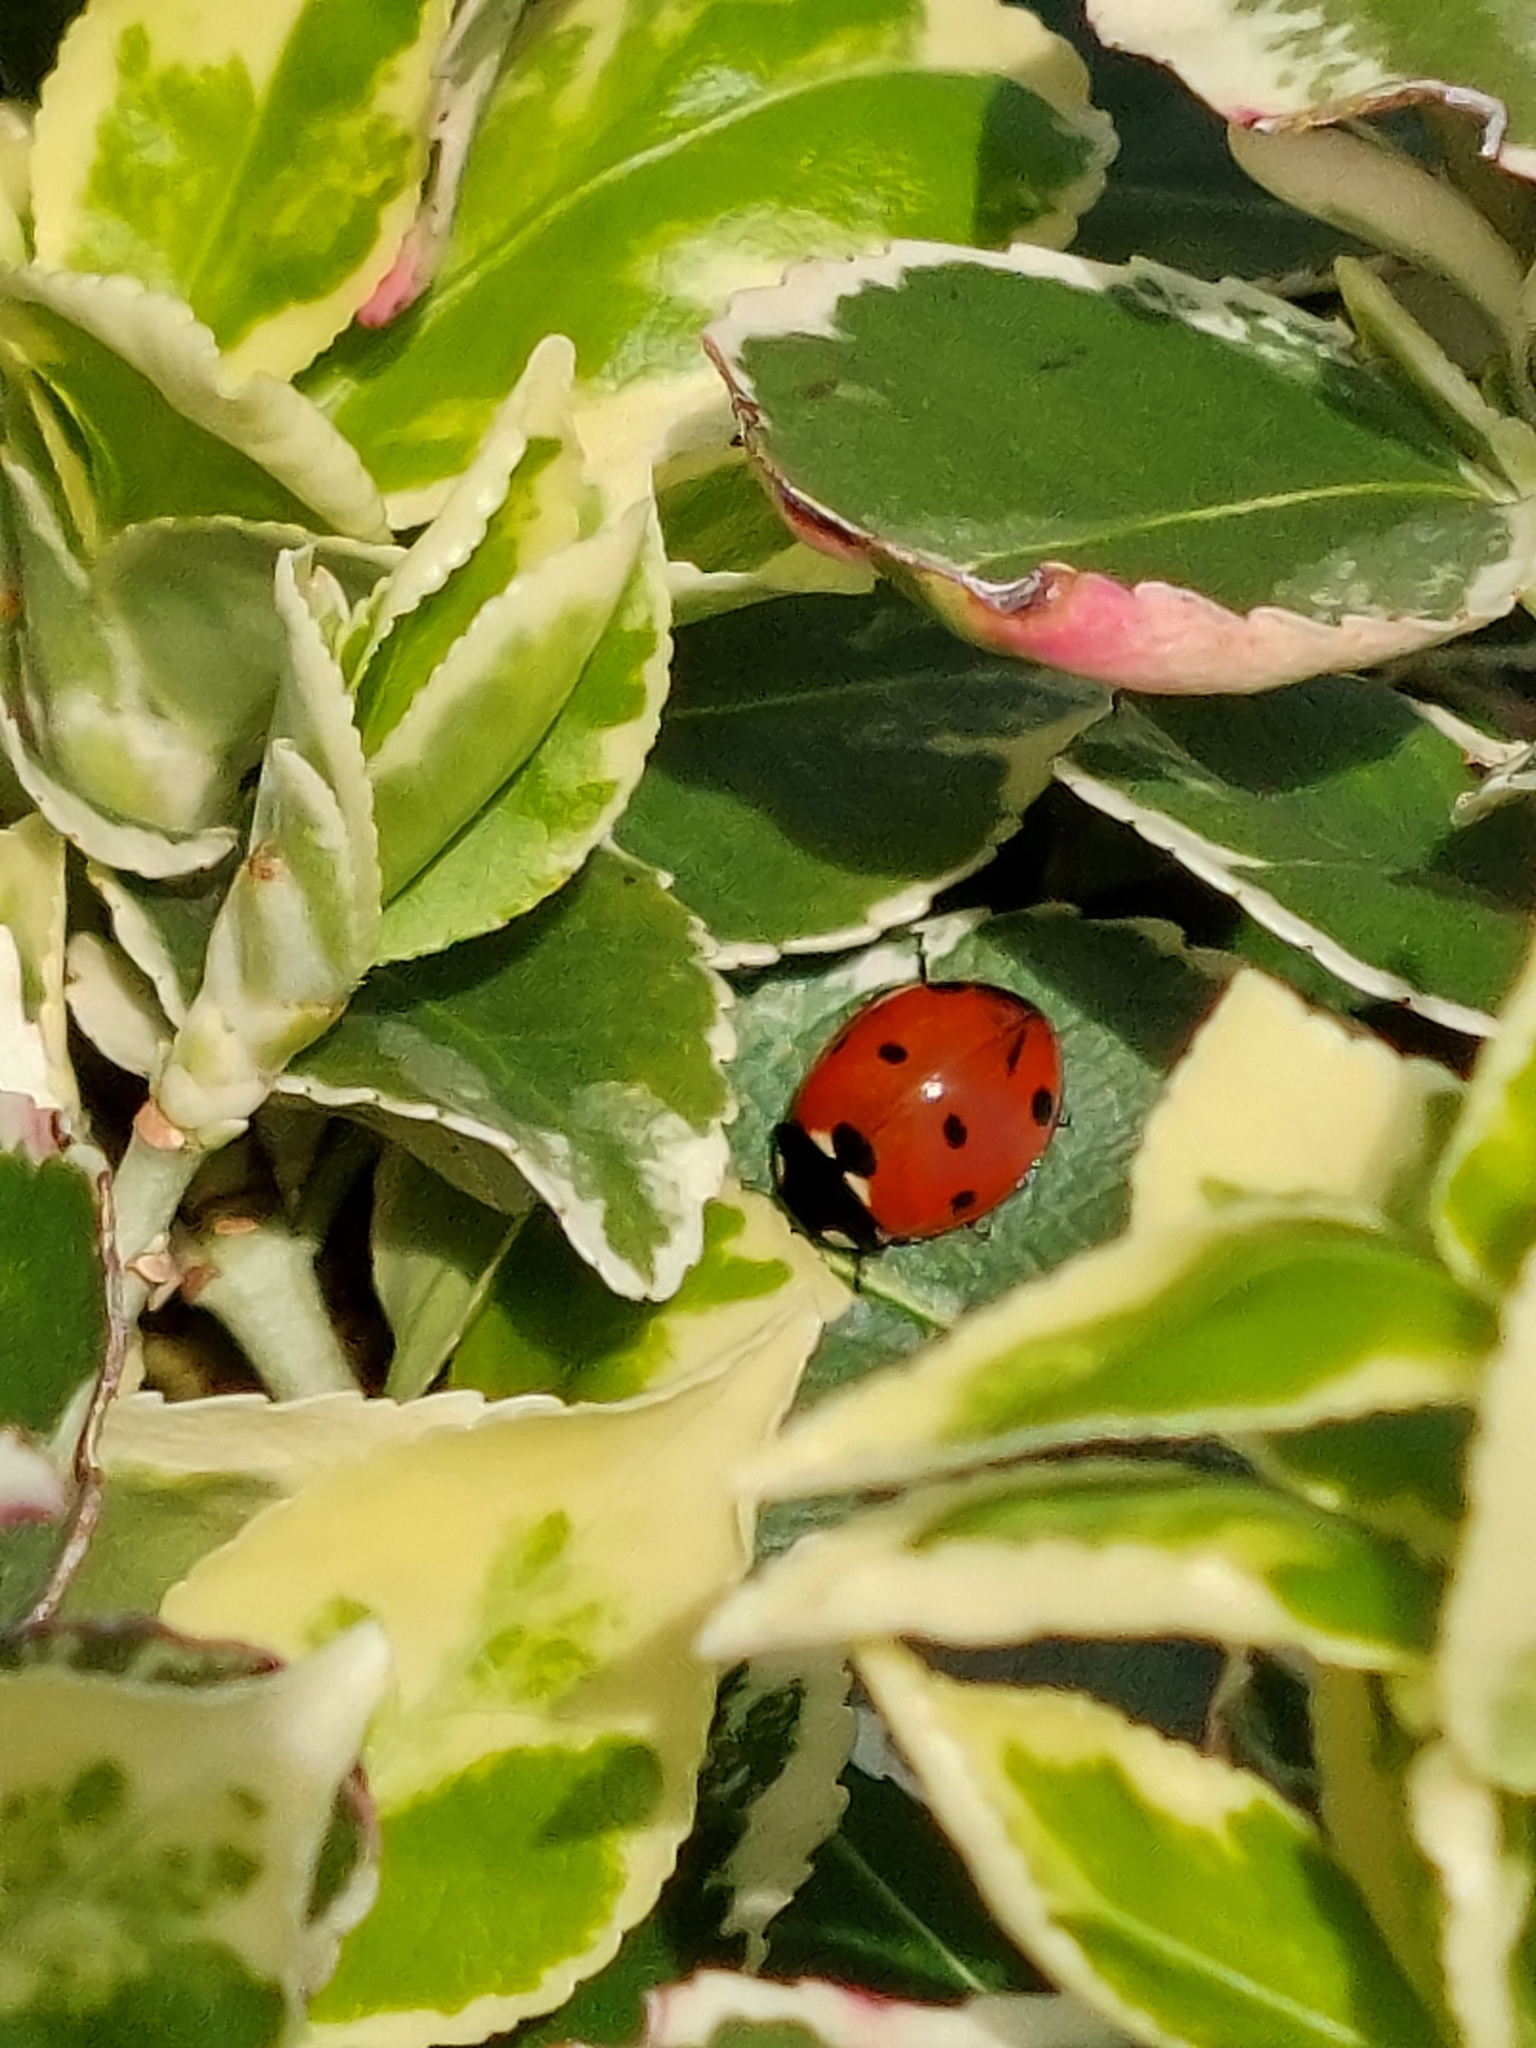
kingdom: Animalia
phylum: Arthropoda
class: Insecta
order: Coleoptera
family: Coccinellidae
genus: Coccinella
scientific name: Coccinella septempunctata
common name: Sevenspotted lady beetle
